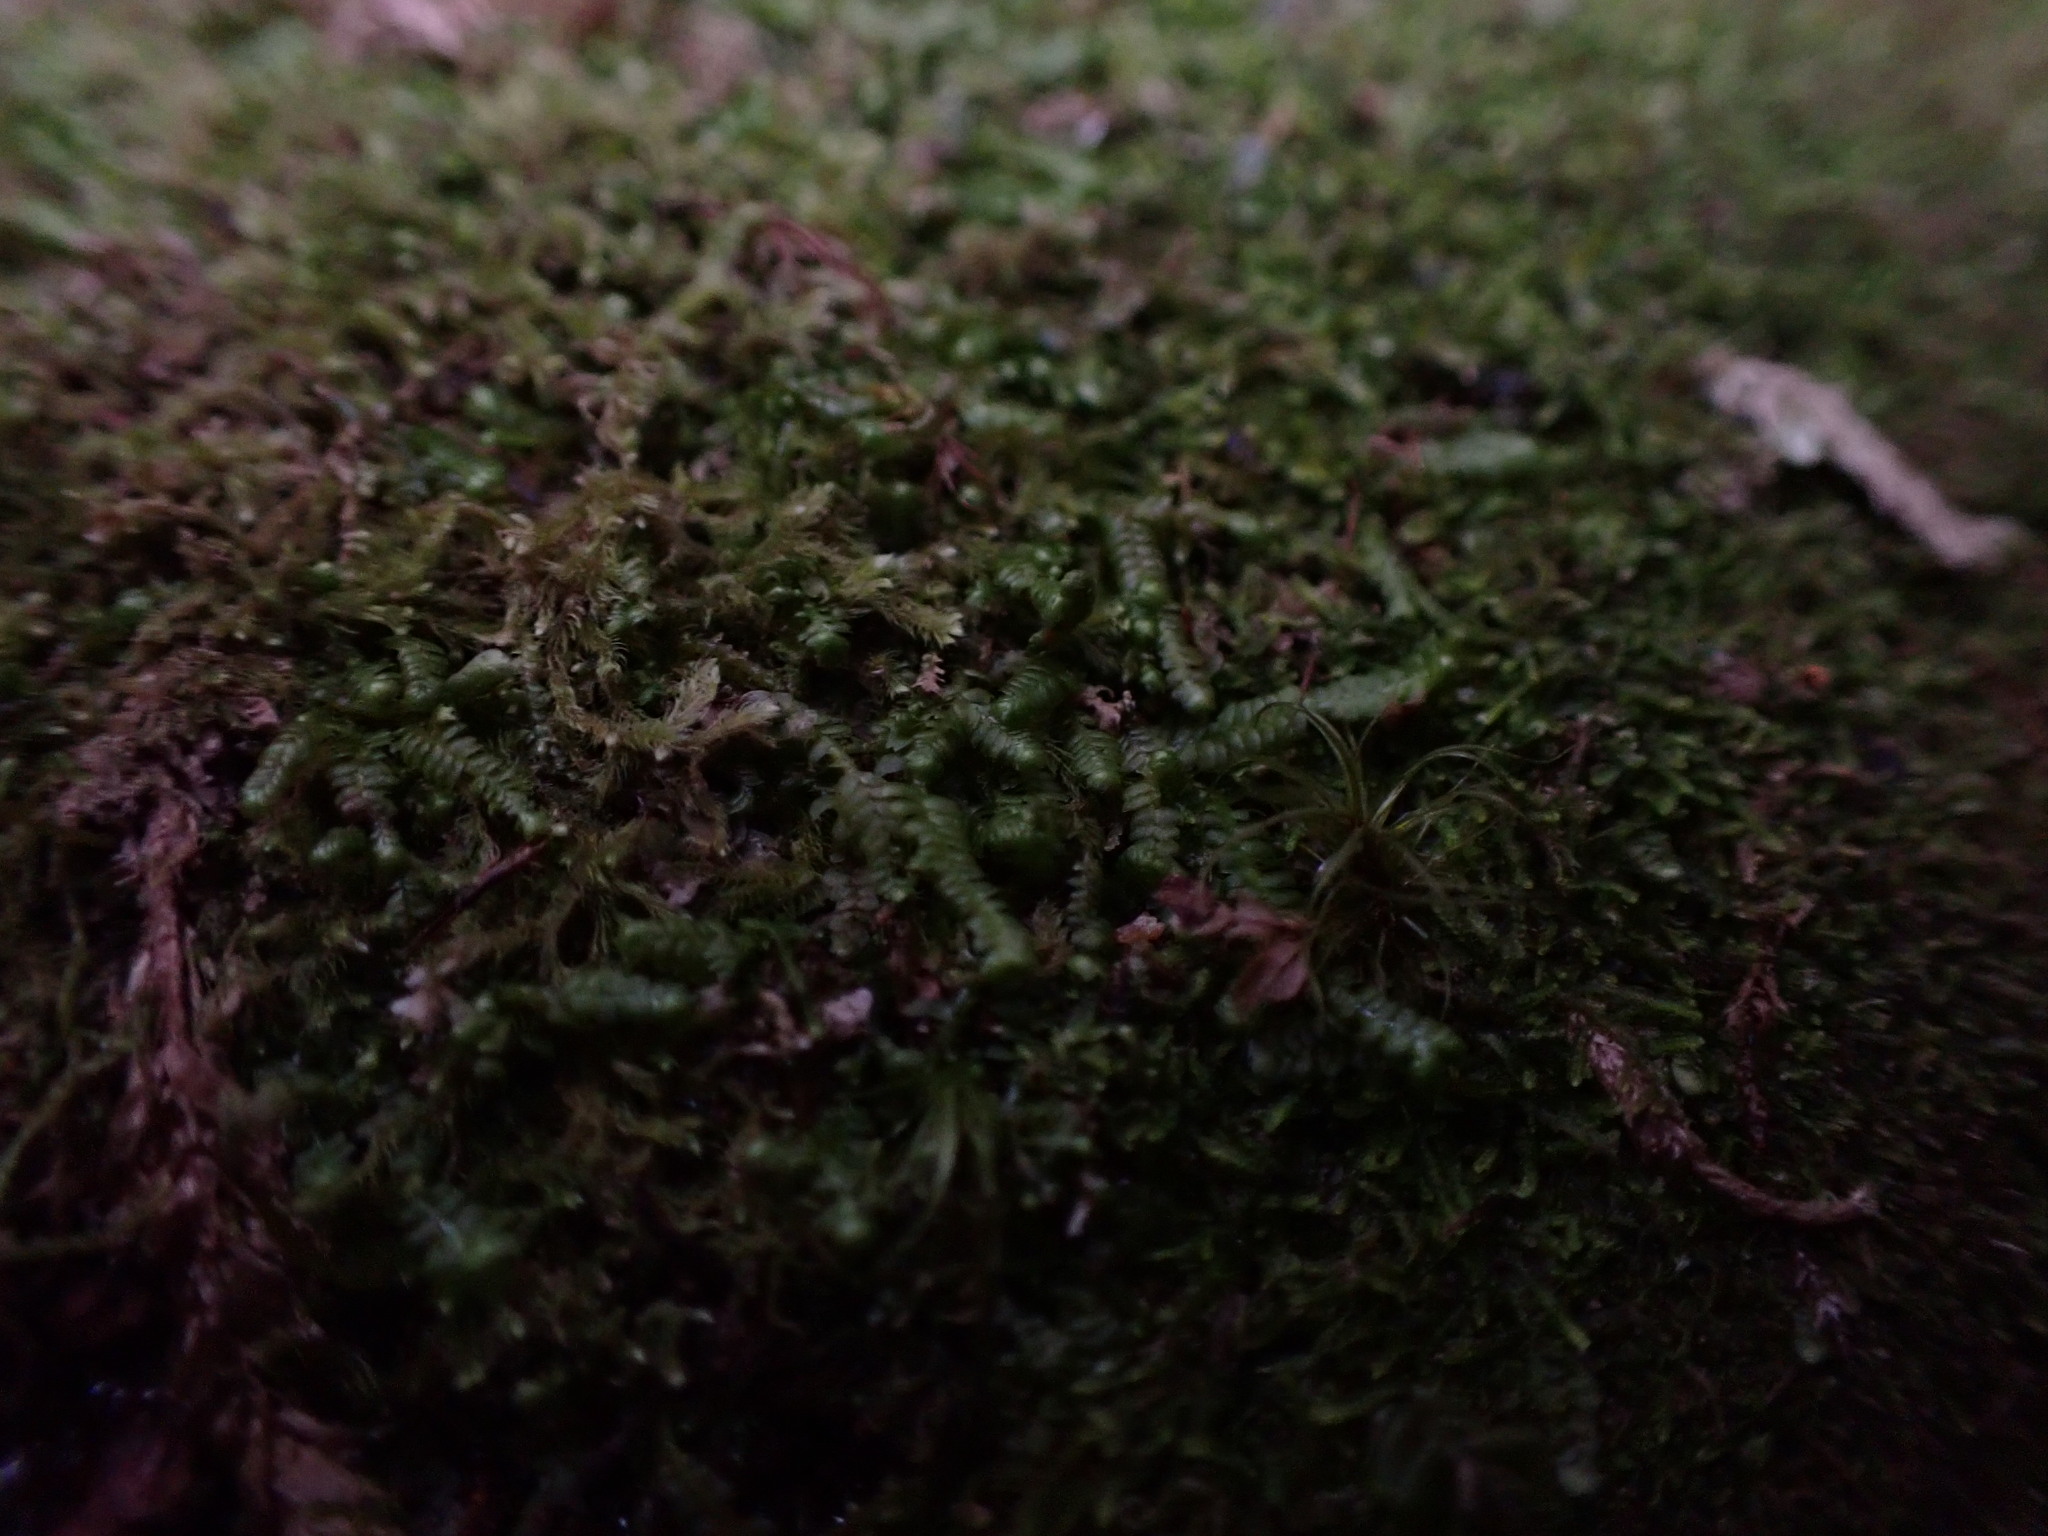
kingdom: Plantae
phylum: Marchantiophyta
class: Jungermanniopsida
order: Jungermanniales
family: Lepidoziaceae
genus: Bazzania
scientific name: Bazzania denudata
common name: Naked whipwort
